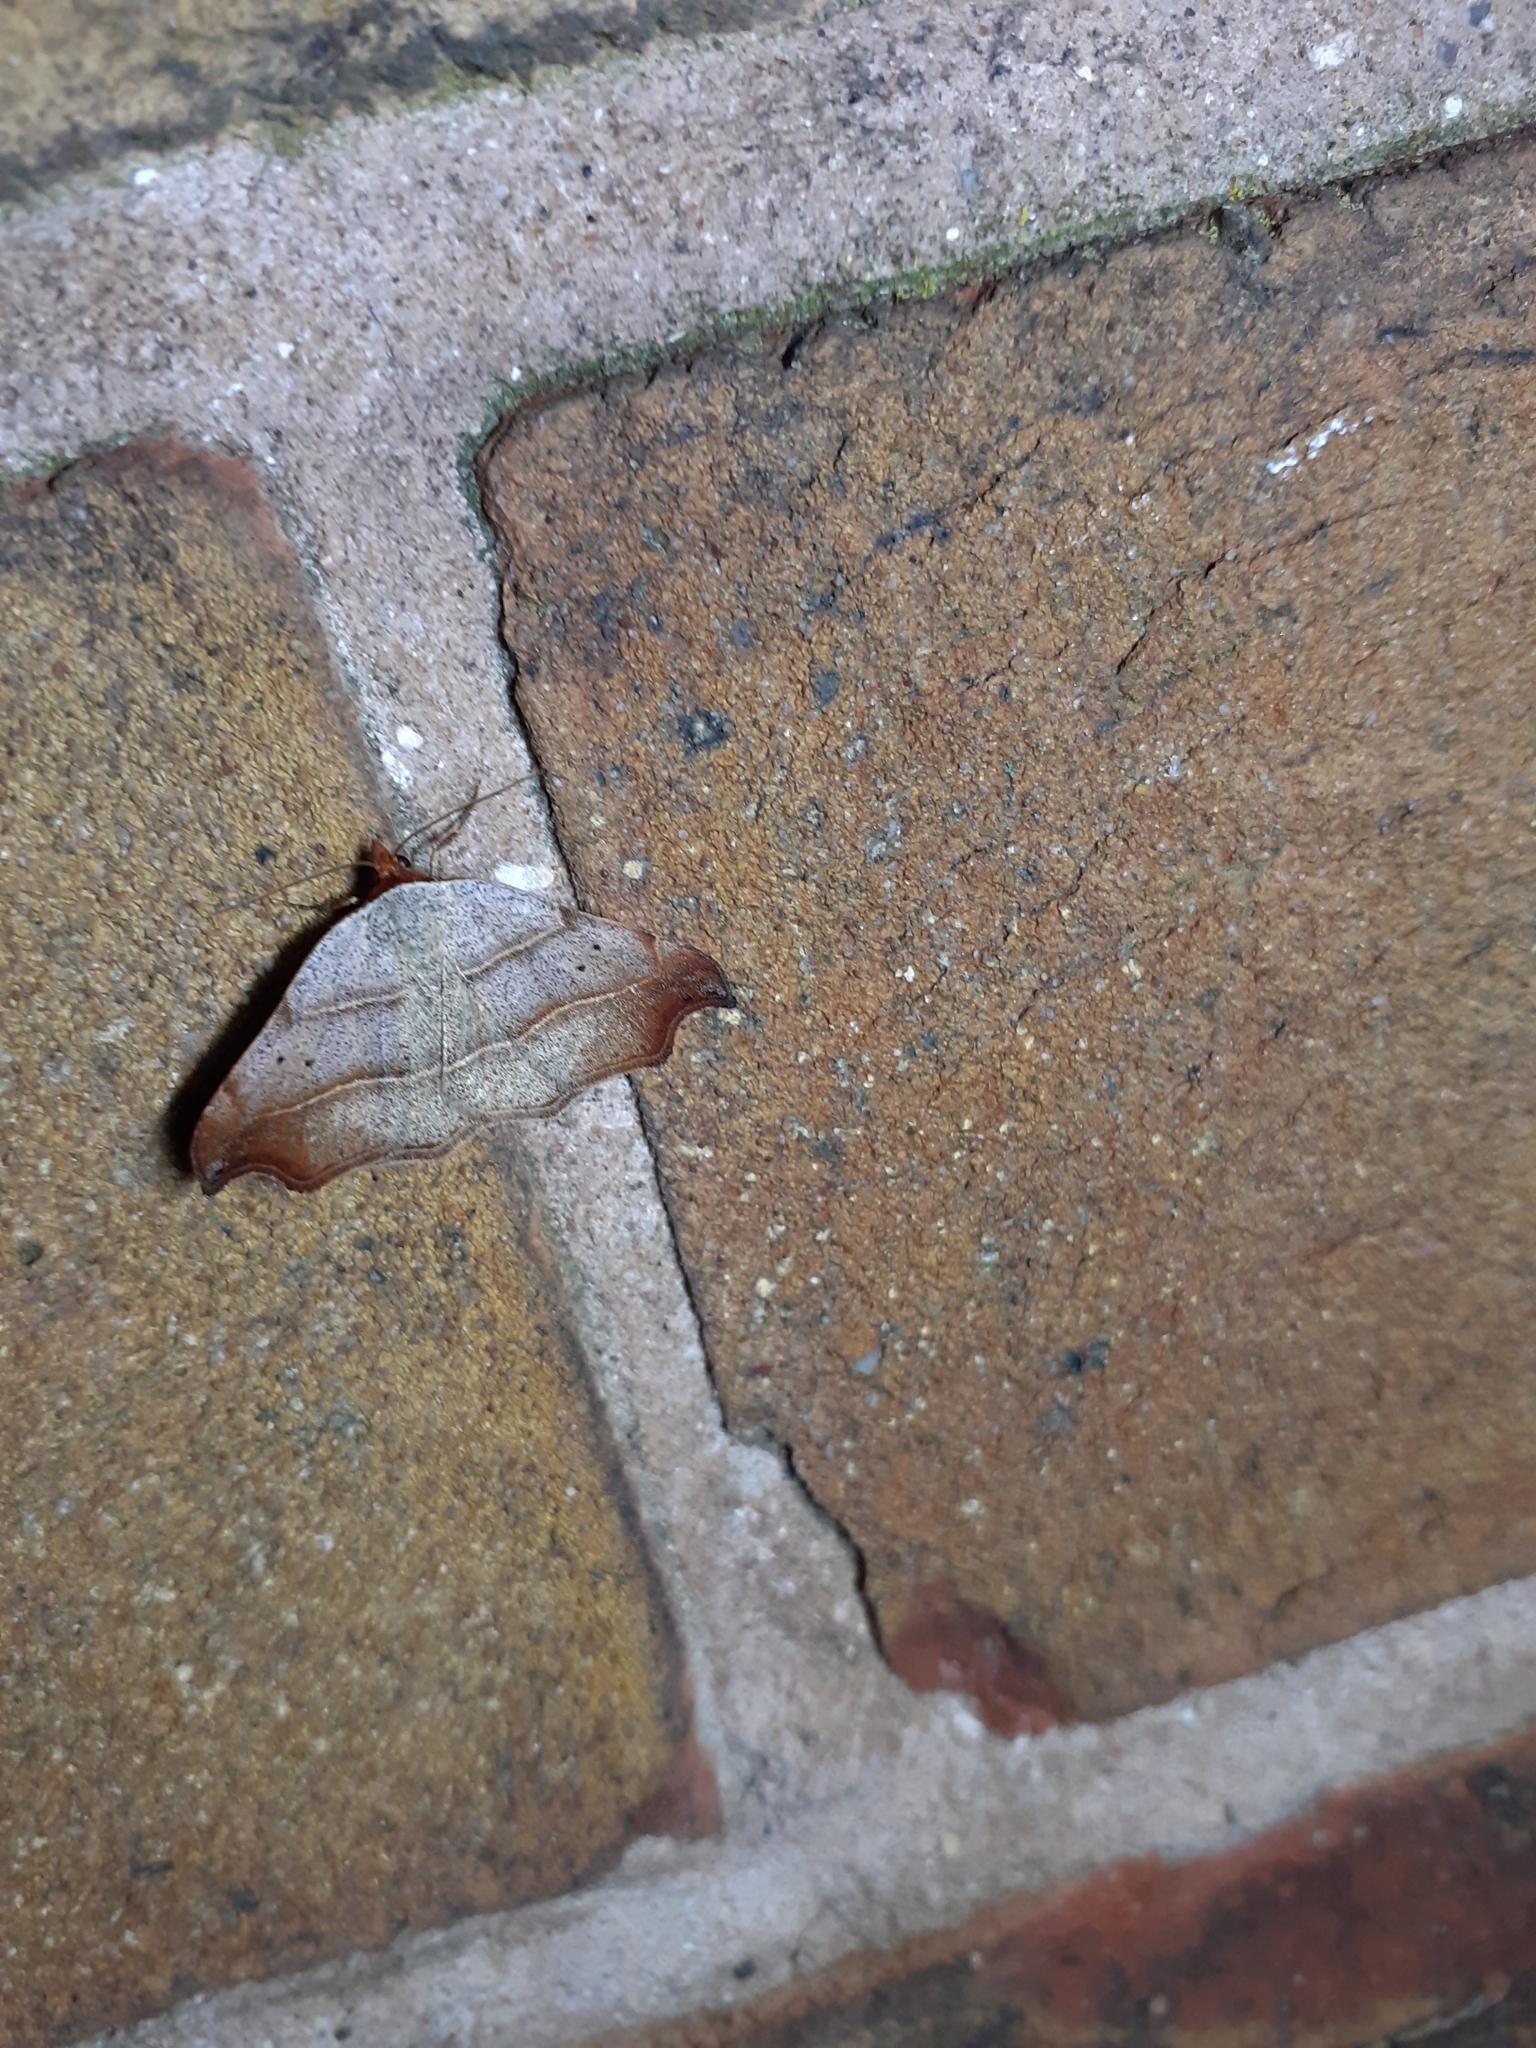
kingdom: Animalia
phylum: Arthropoda
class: Insecta
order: Lepidoptera
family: Erebidae
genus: Laspeyria
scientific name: Laspeyria flexula
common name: Beautiful hook-tip
